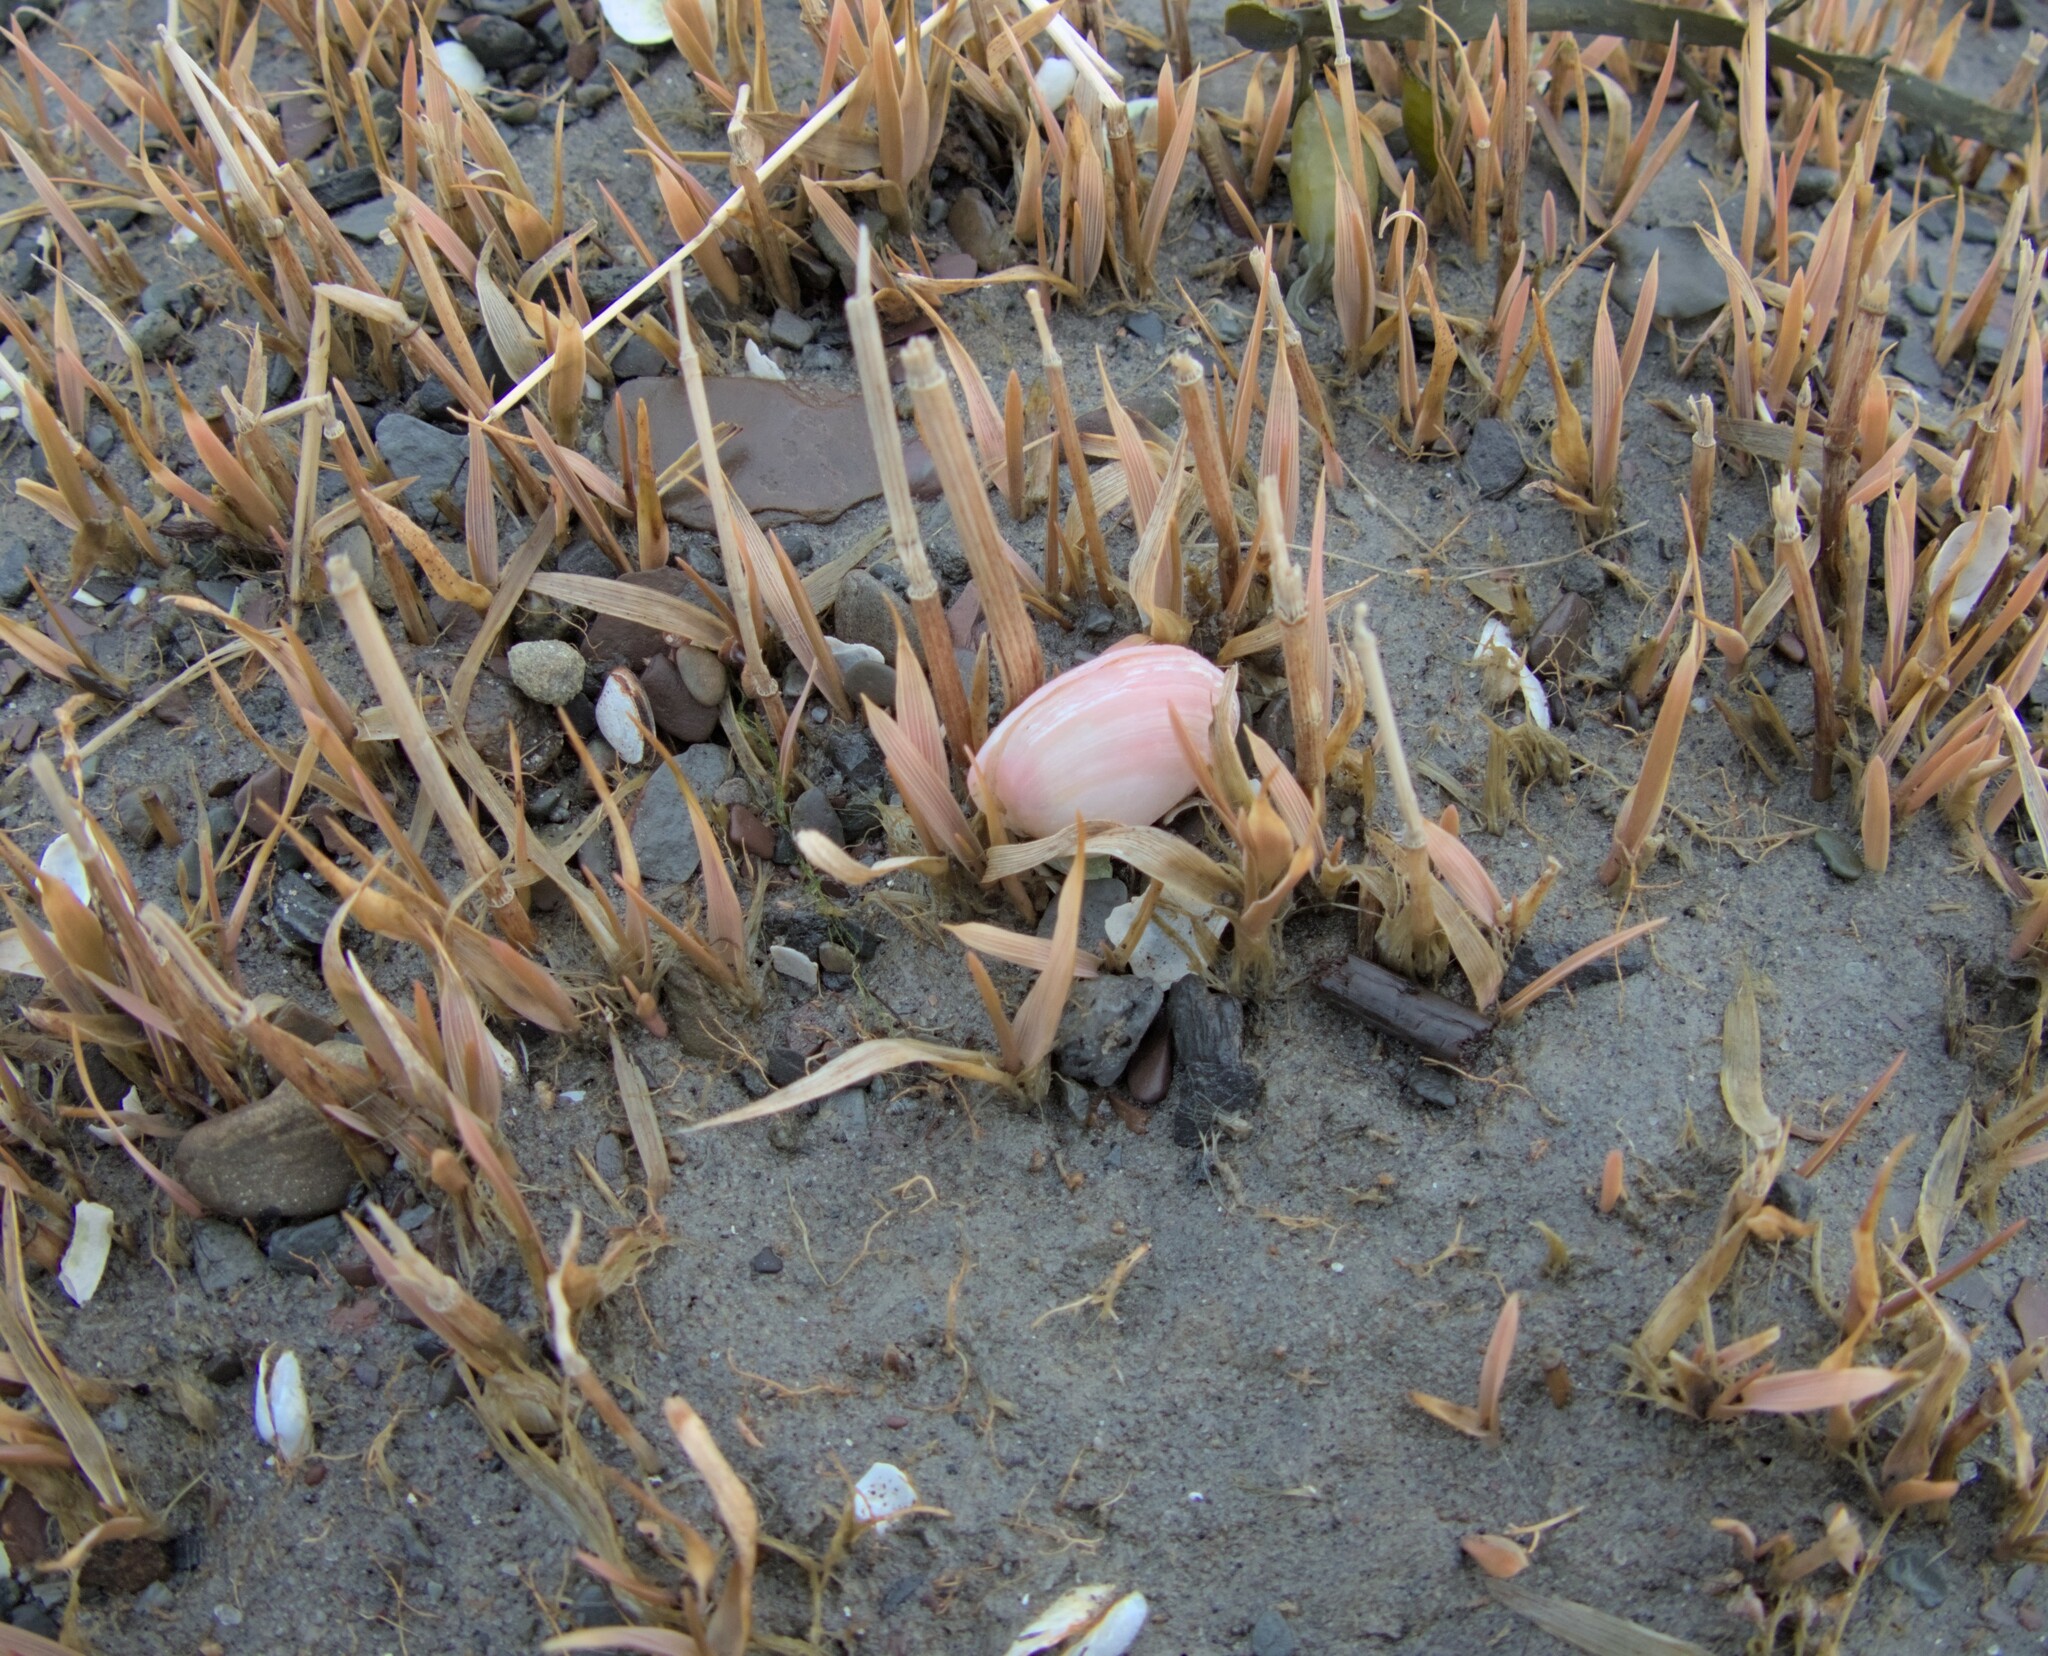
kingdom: Animalia
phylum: Mollusca
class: Bivalvia
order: Cardiida
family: Tellinidae
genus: Macoma
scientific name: Macoma balthica
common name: Baltic tellin
